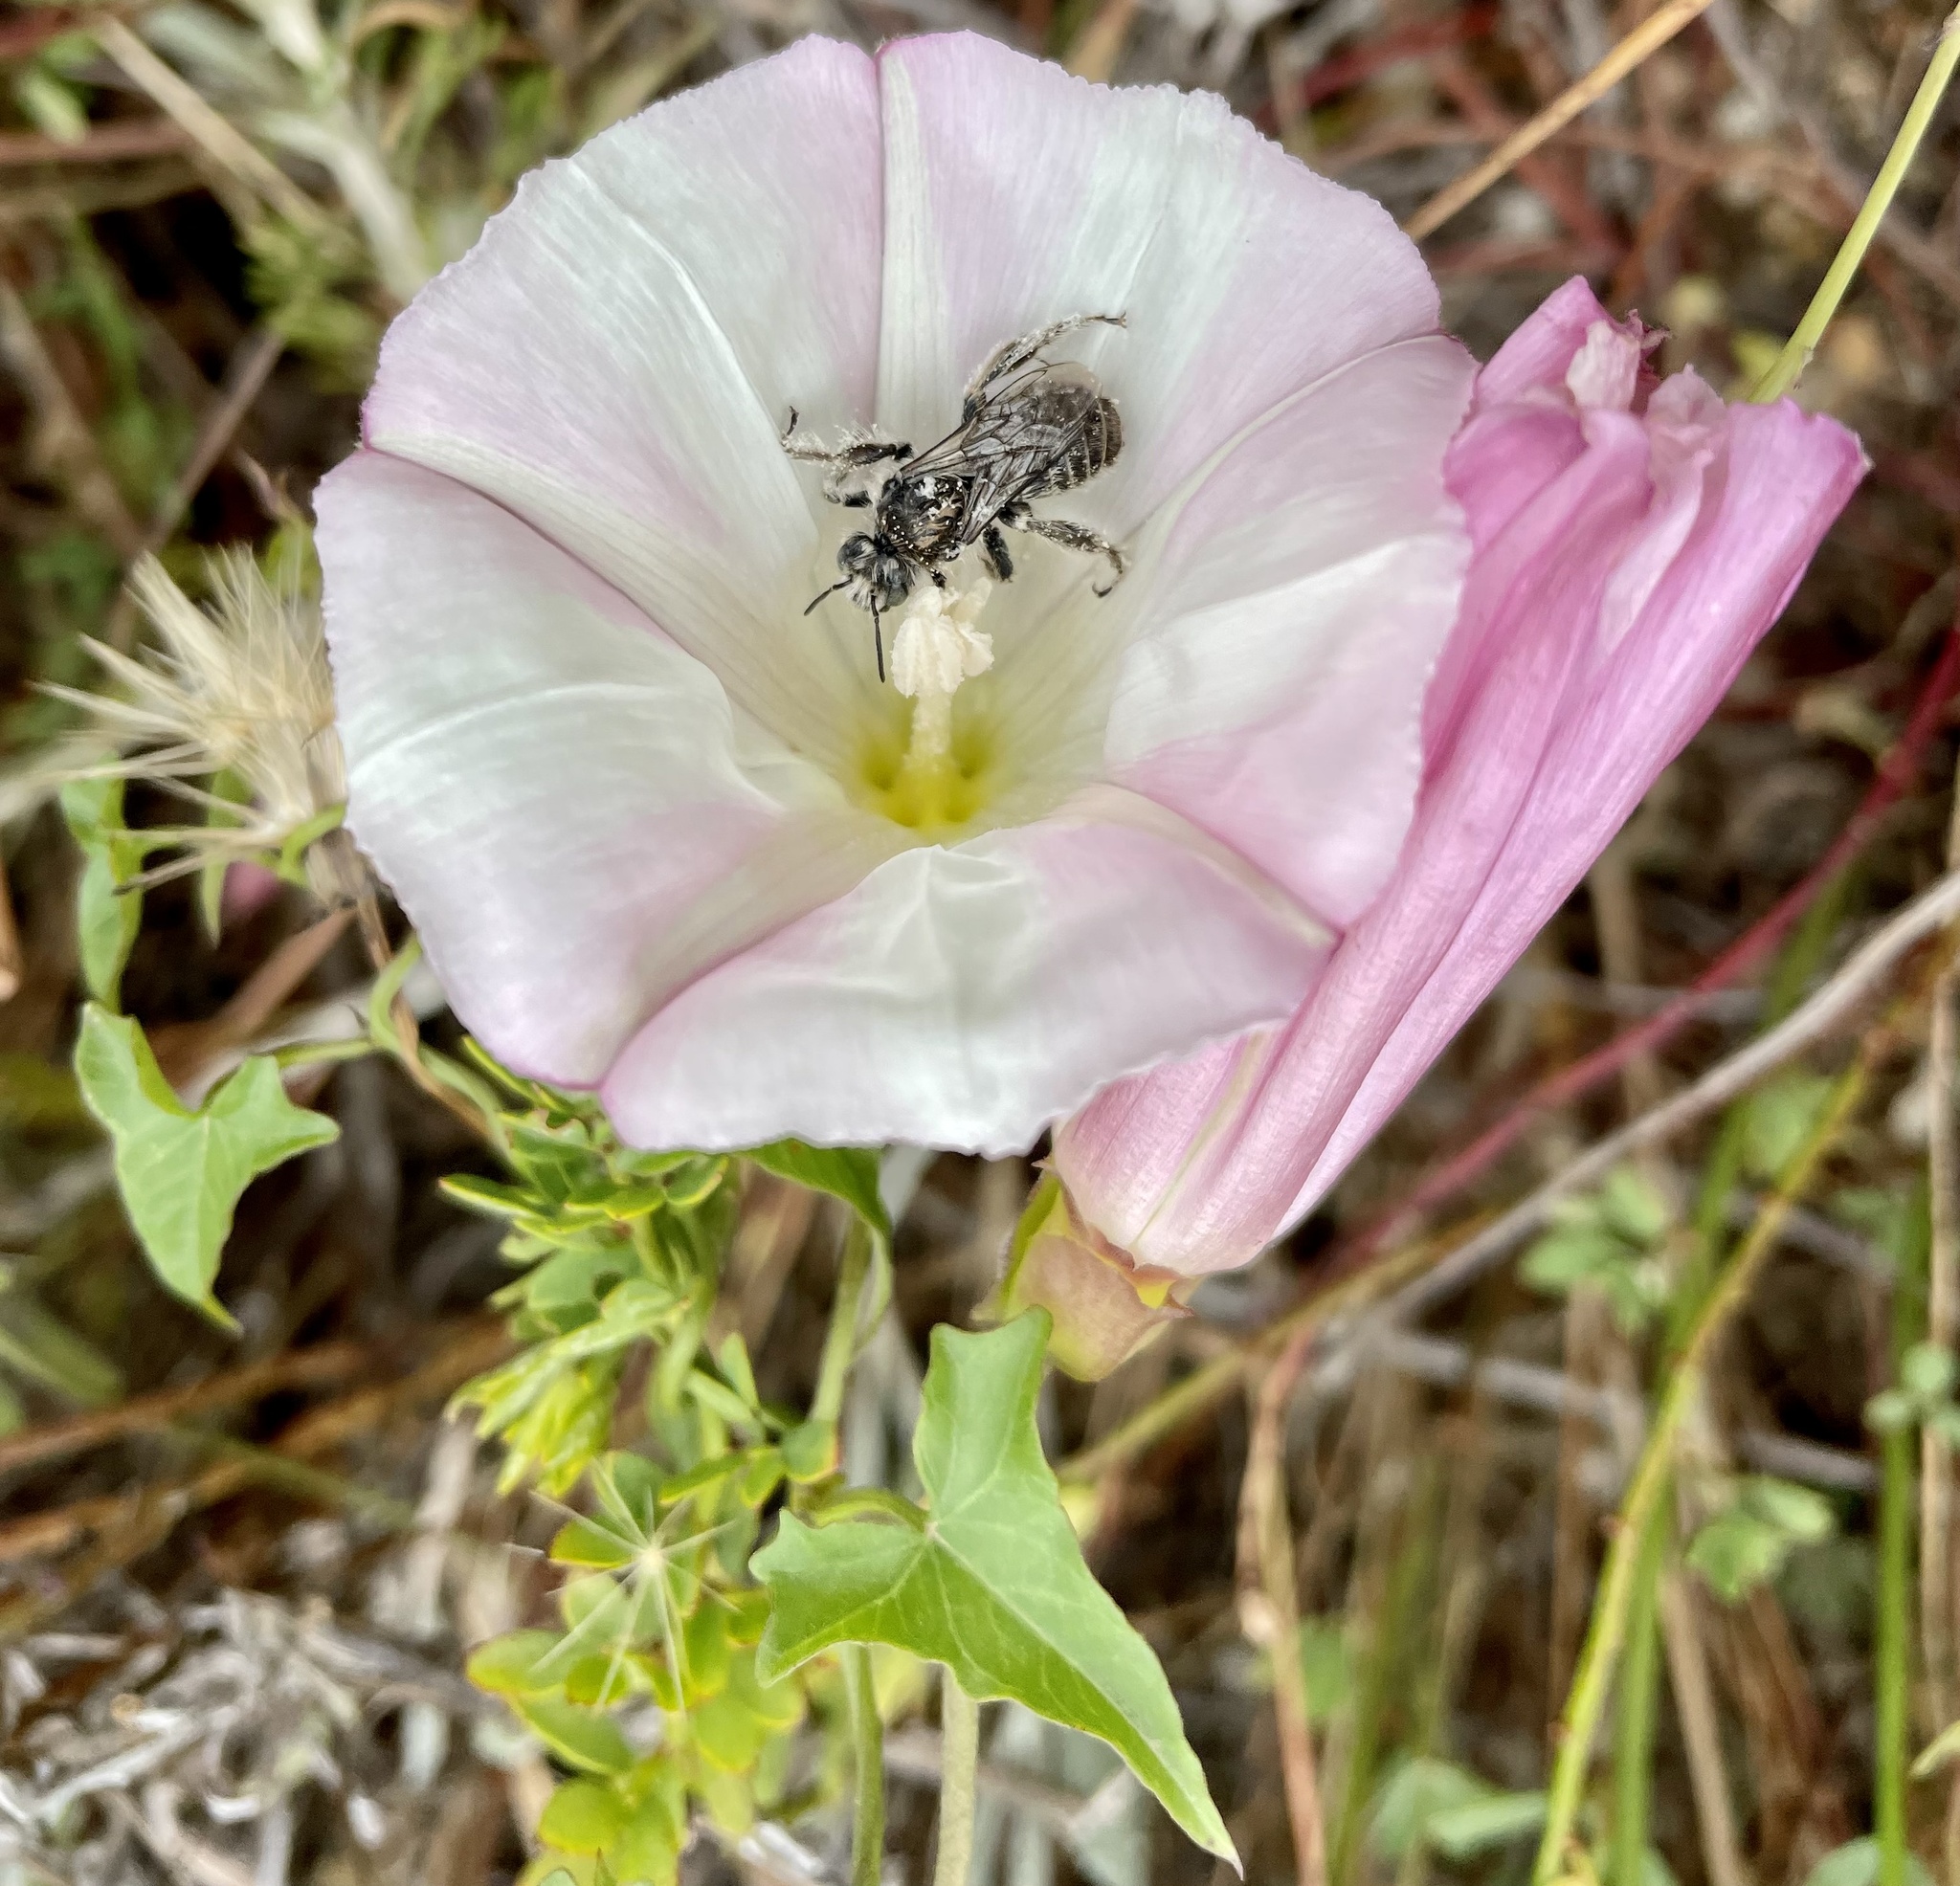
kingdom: Plantae
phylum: Tracheophyta
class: Magnoliopsida
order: Solanales
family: Convolvulaceae
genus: Calystegia
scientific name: Calystegia macrostegia
